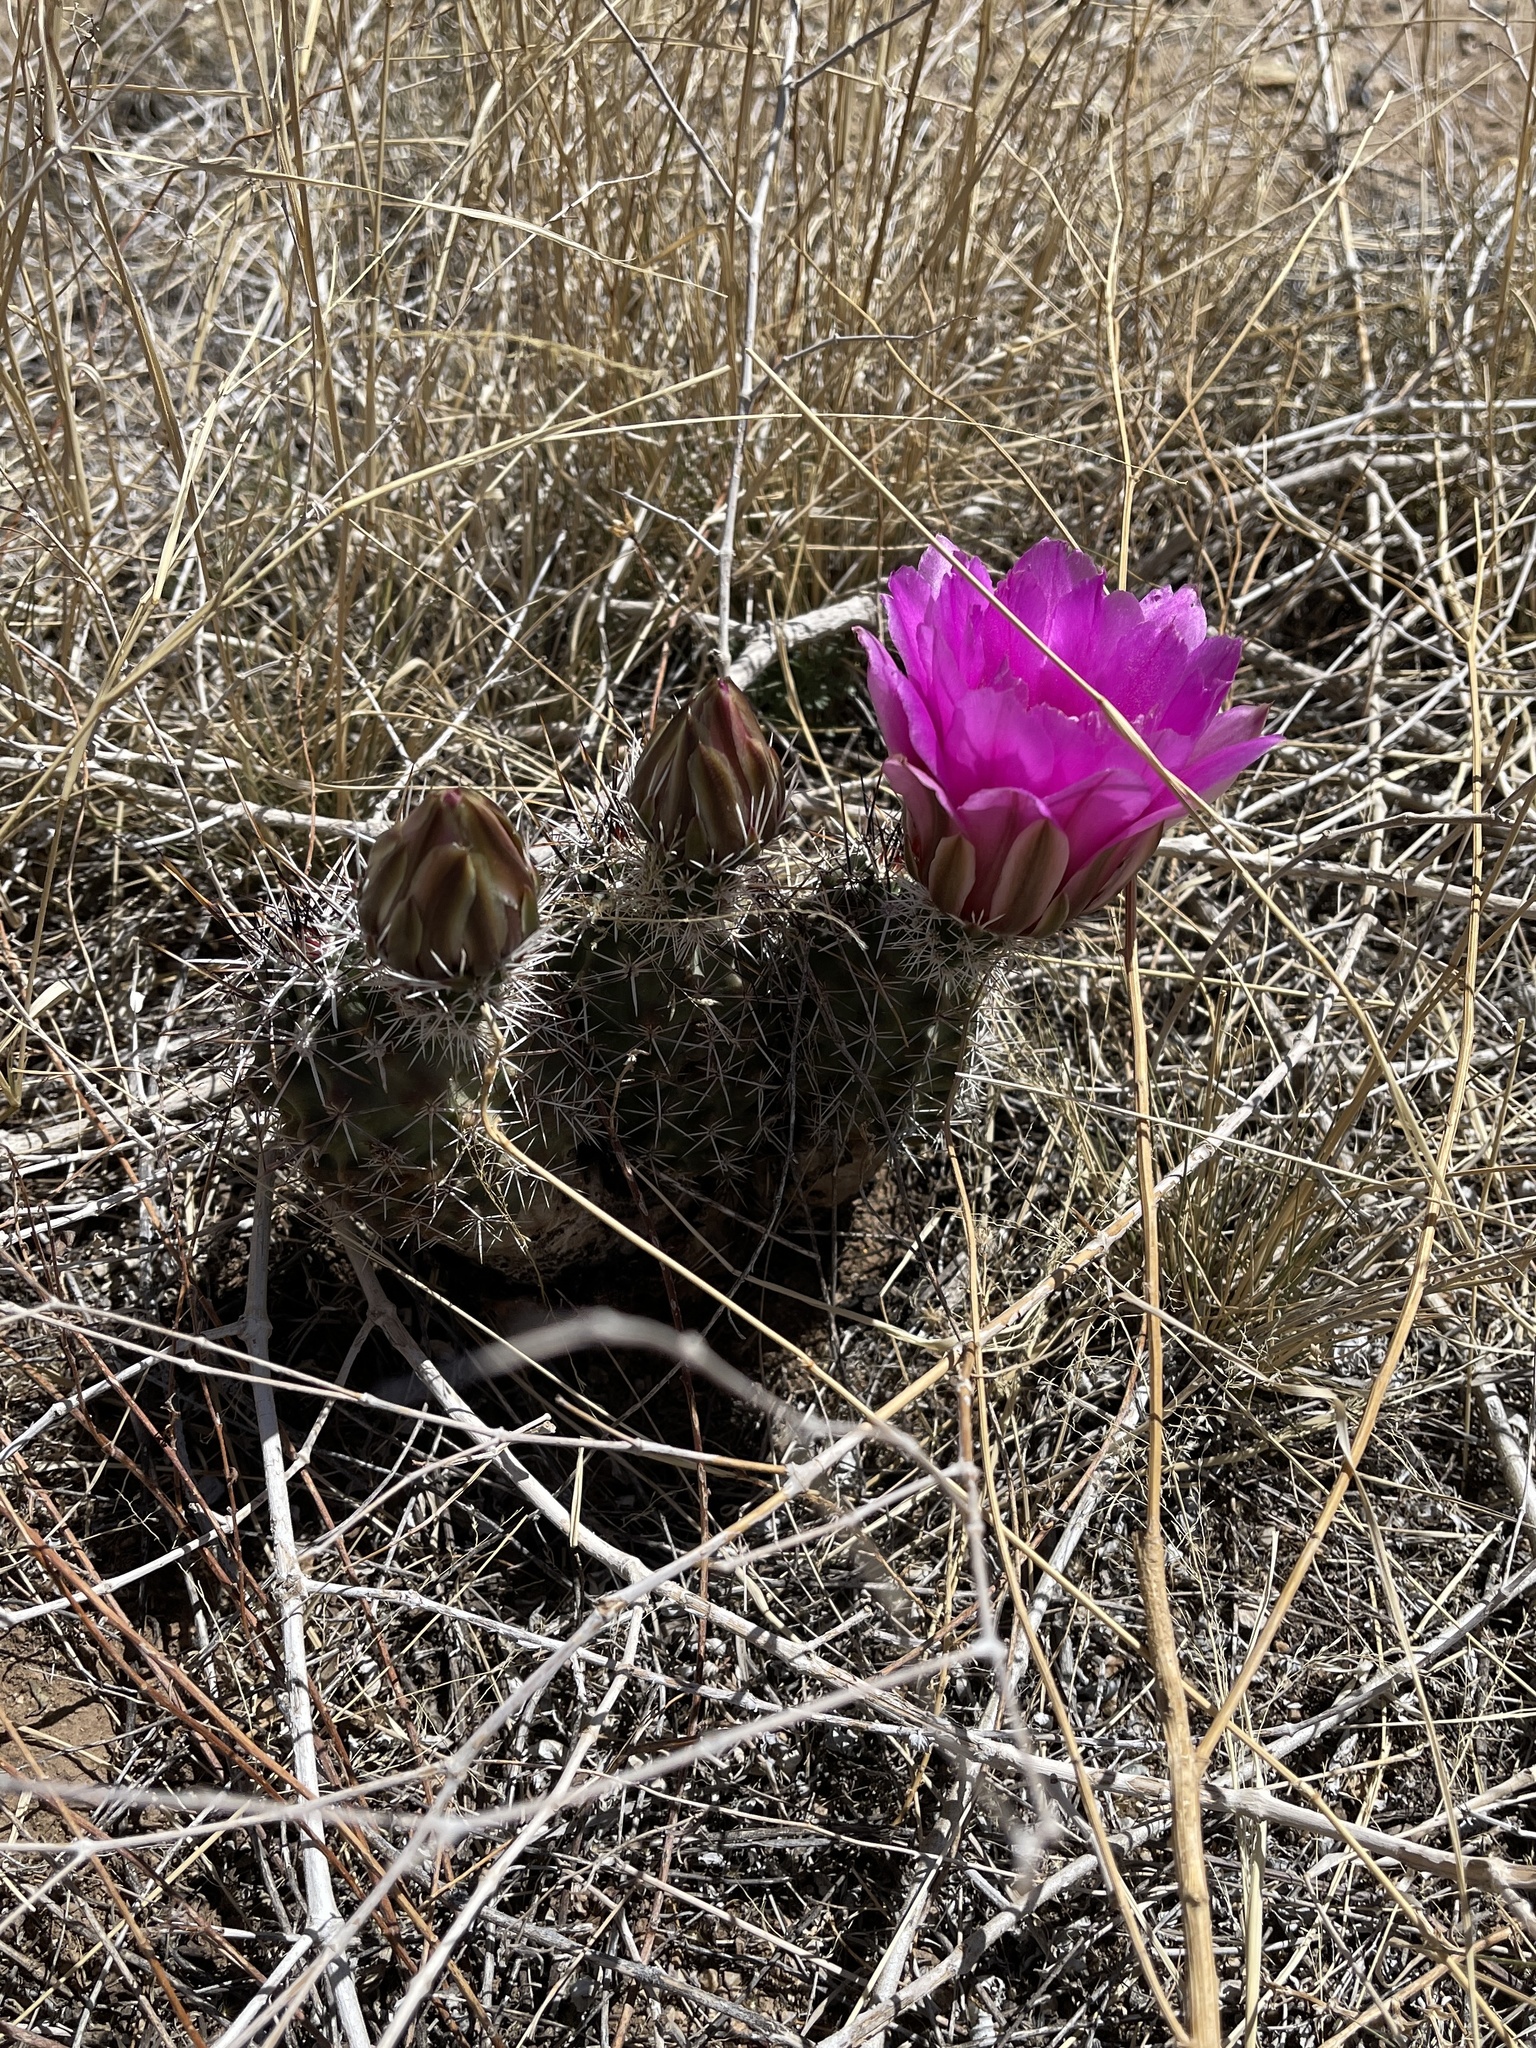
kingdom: Plantae
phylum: Tracheophyta
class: Magnoliopsida
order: Caryophyllales
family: Cactaceae
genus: Echinocereus
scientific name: Echinocereus fendleri
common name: Fendler's hedgehog cactus
